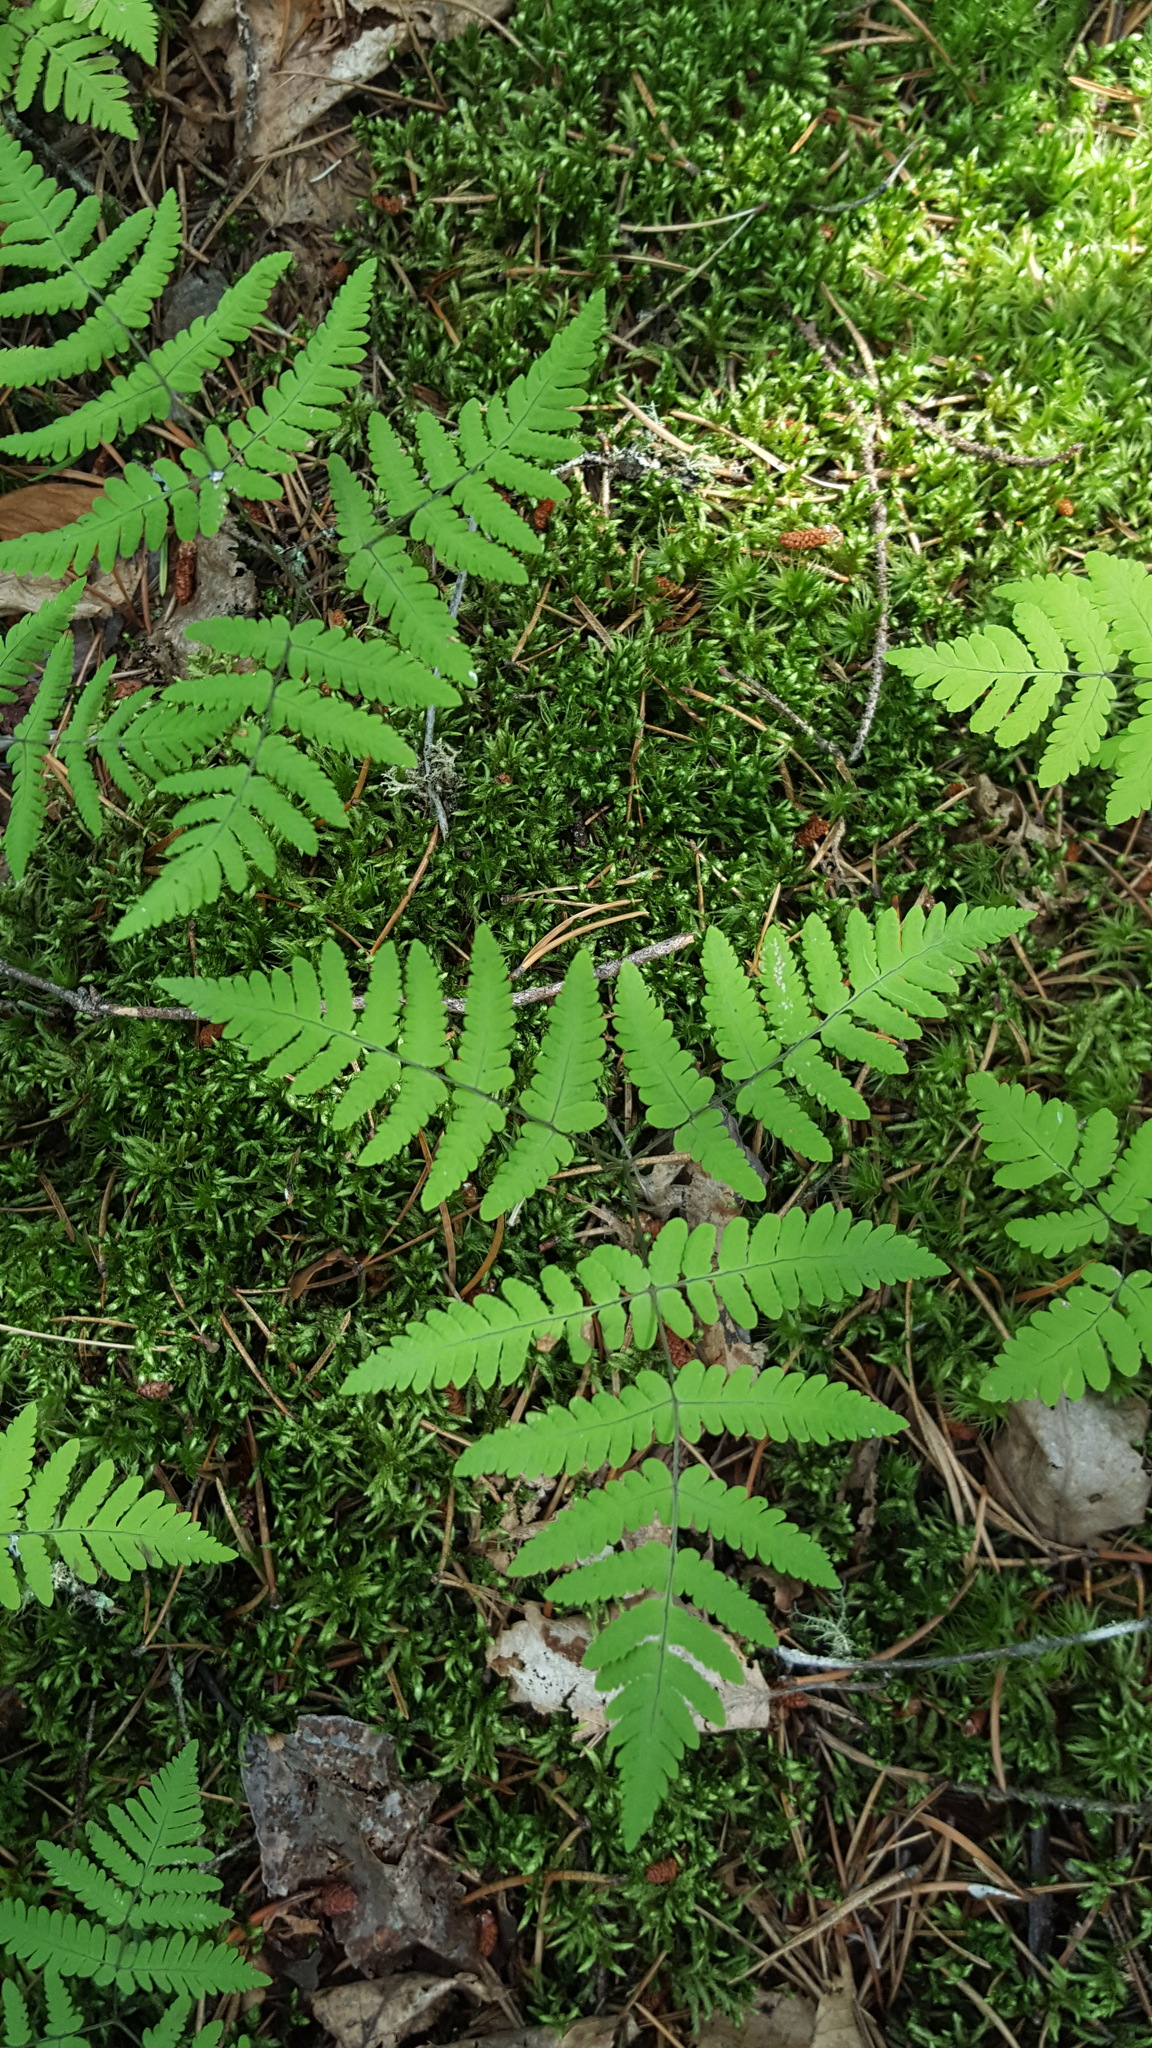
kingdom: Plantae
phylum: Tracheophyta
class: Polypodiopsida
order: Polypodiales
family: Cystopteridaceae
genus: Gymnocarpium
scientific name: Gymnocarpium dryopteris
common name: Oak fern
